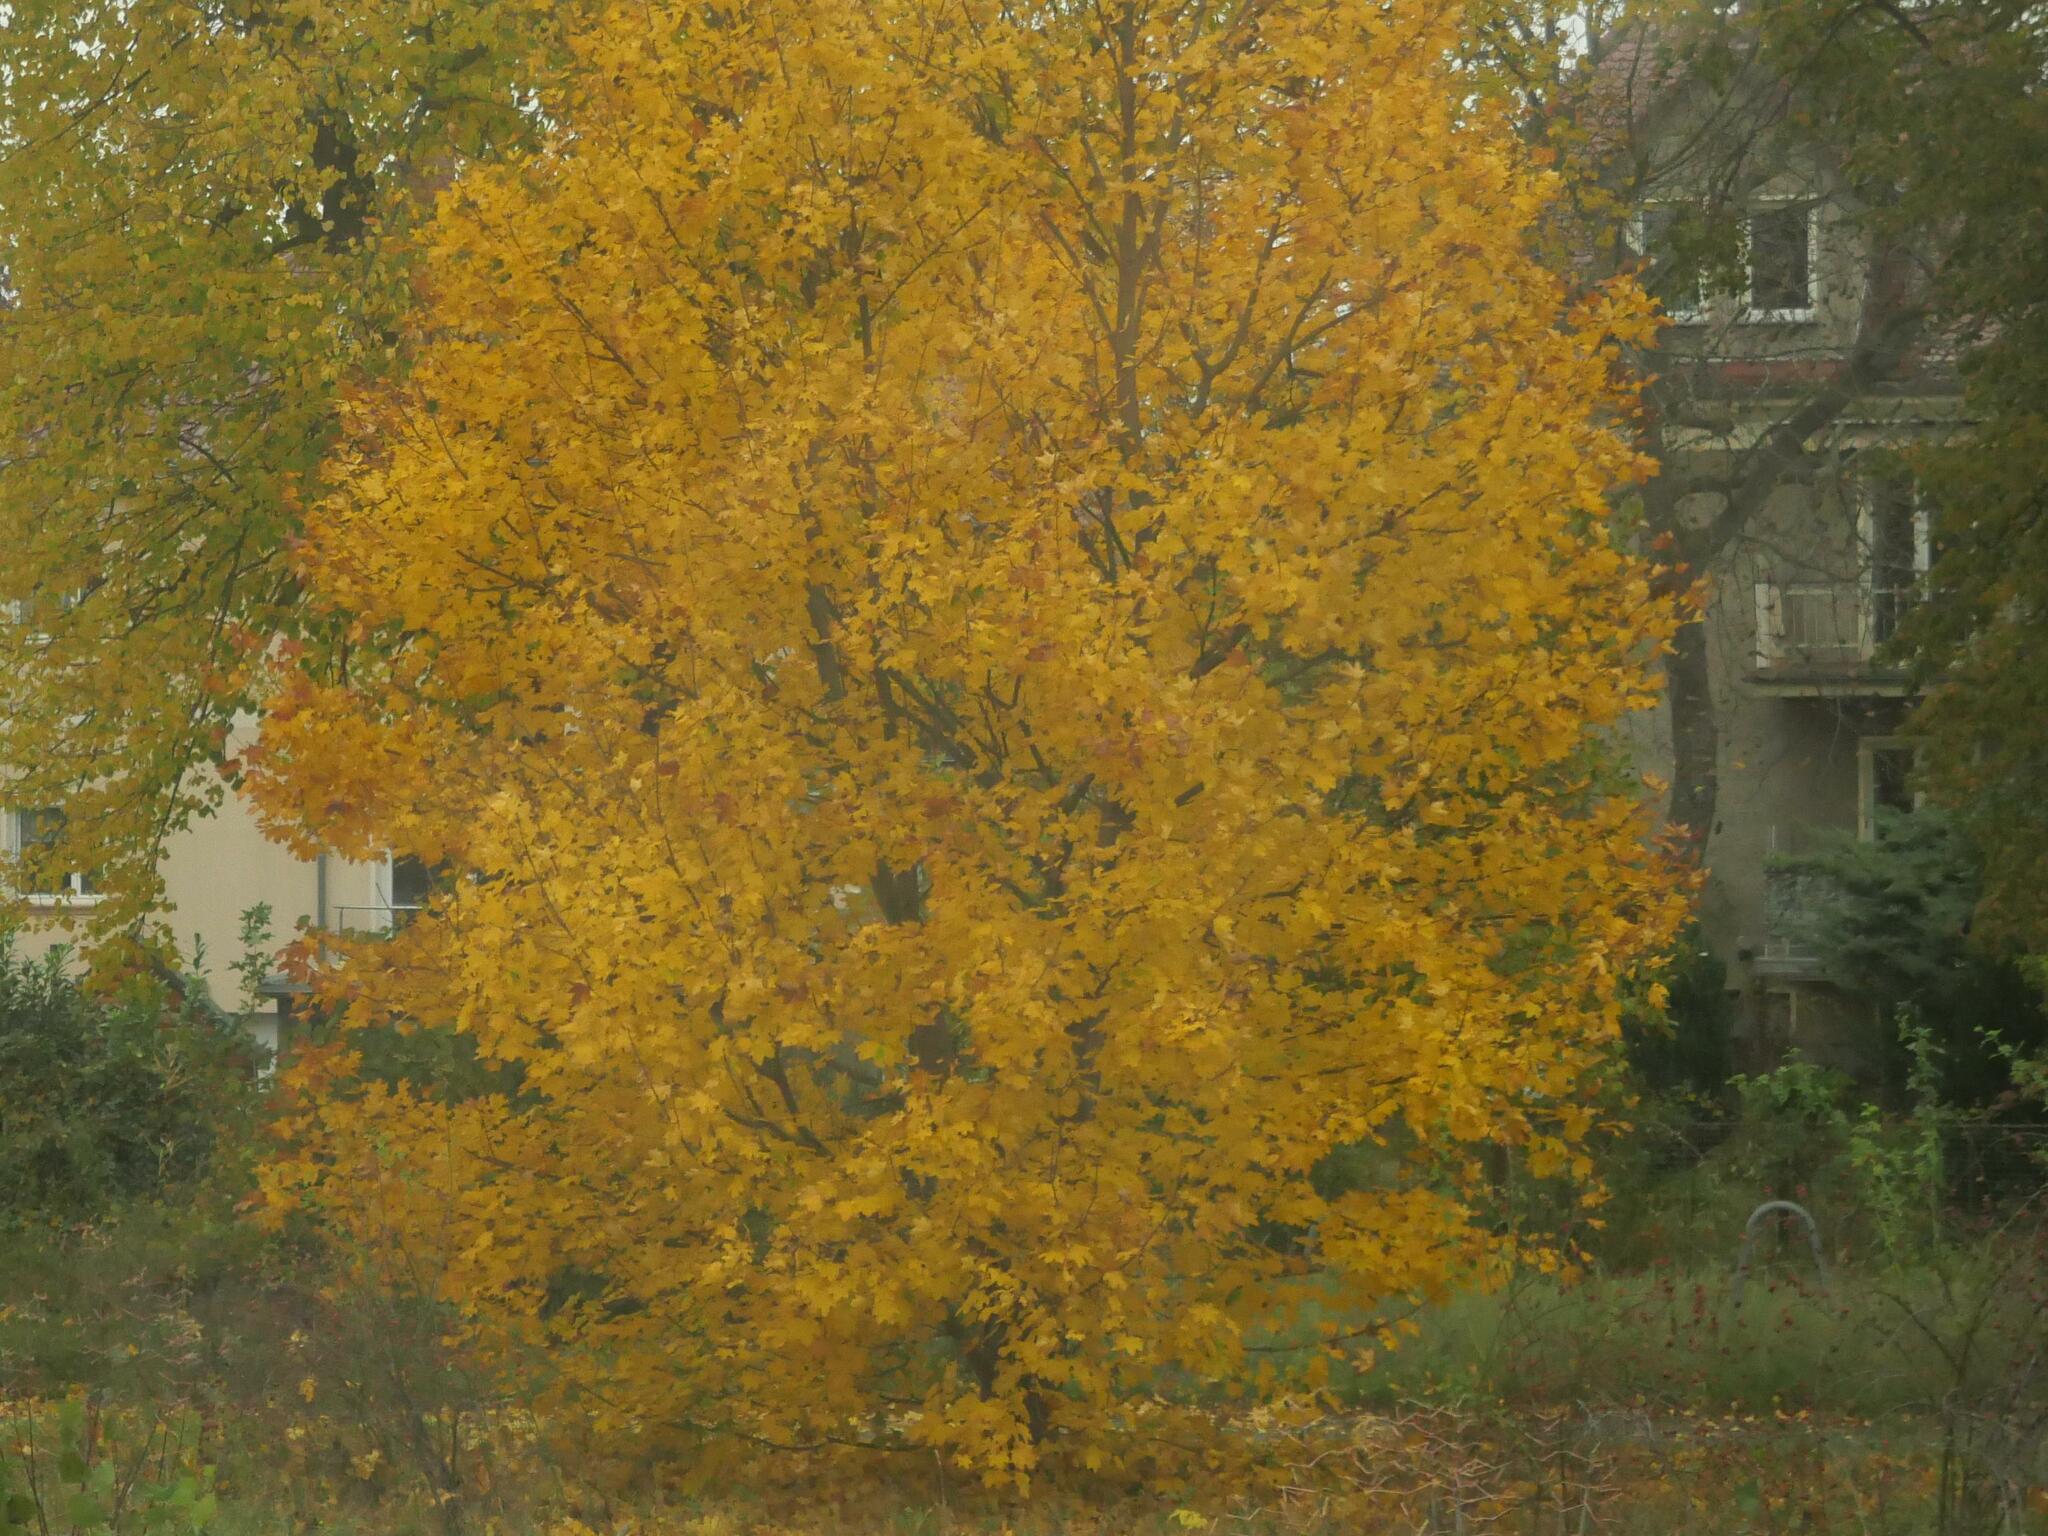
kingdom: Plantae
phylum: Tracheophyta
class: Magnoliopsida
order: Sapindales
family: Sapindaceae
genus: Acer
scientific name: Acer platanoides
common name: Norway maple
